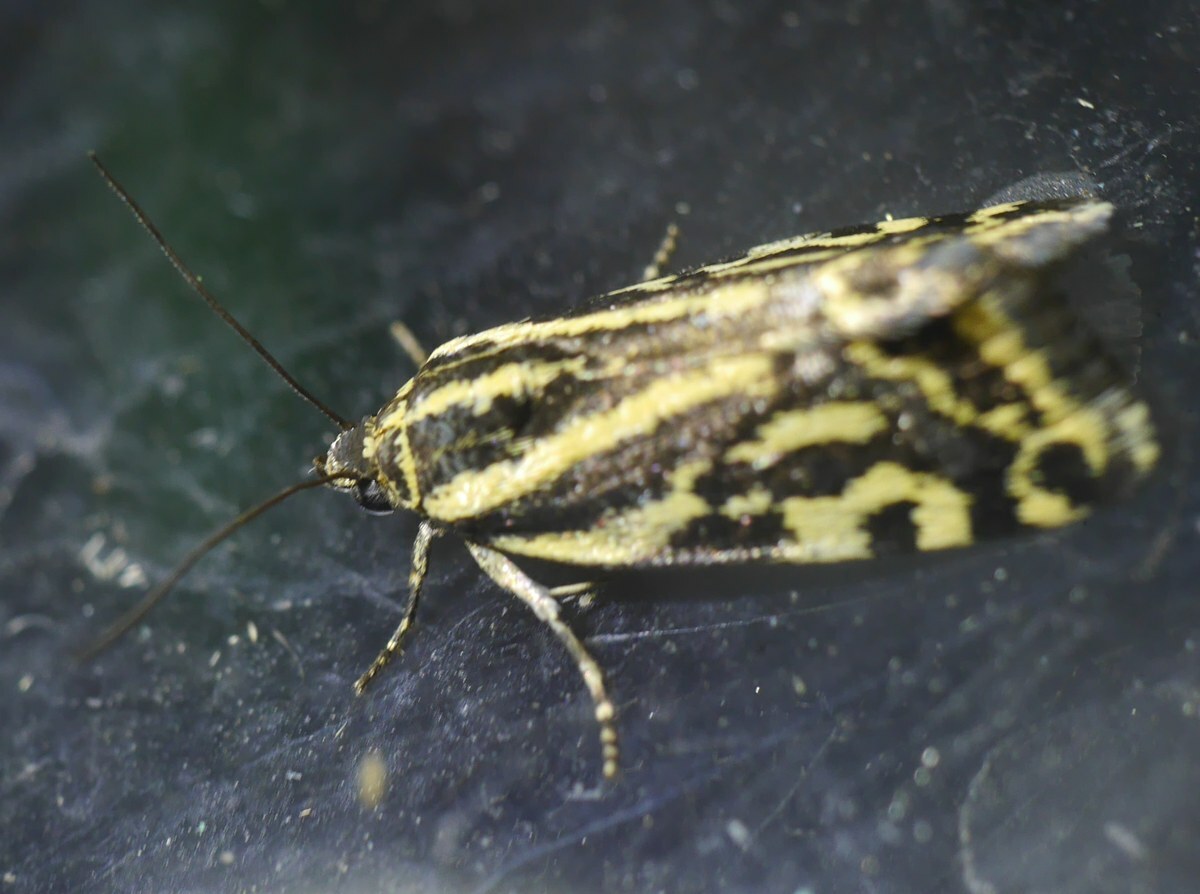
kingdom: Animalia
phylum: Arthropoda
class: Insecta
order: Lepidoptera
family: Noctuidae
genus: Acontia
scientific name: Acontia trabealis
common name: Spotted sulphur
